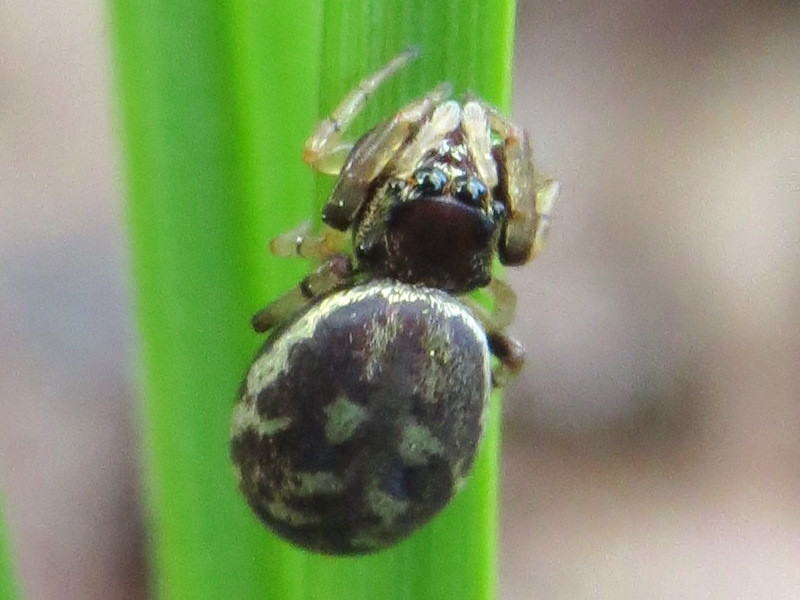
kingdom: Animalia
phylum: Arthropoda
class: Arachnida
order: Araneae
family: Salticidae
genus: Zygoballus
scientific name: Zygoballus rufipes
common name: Jumping spiders
